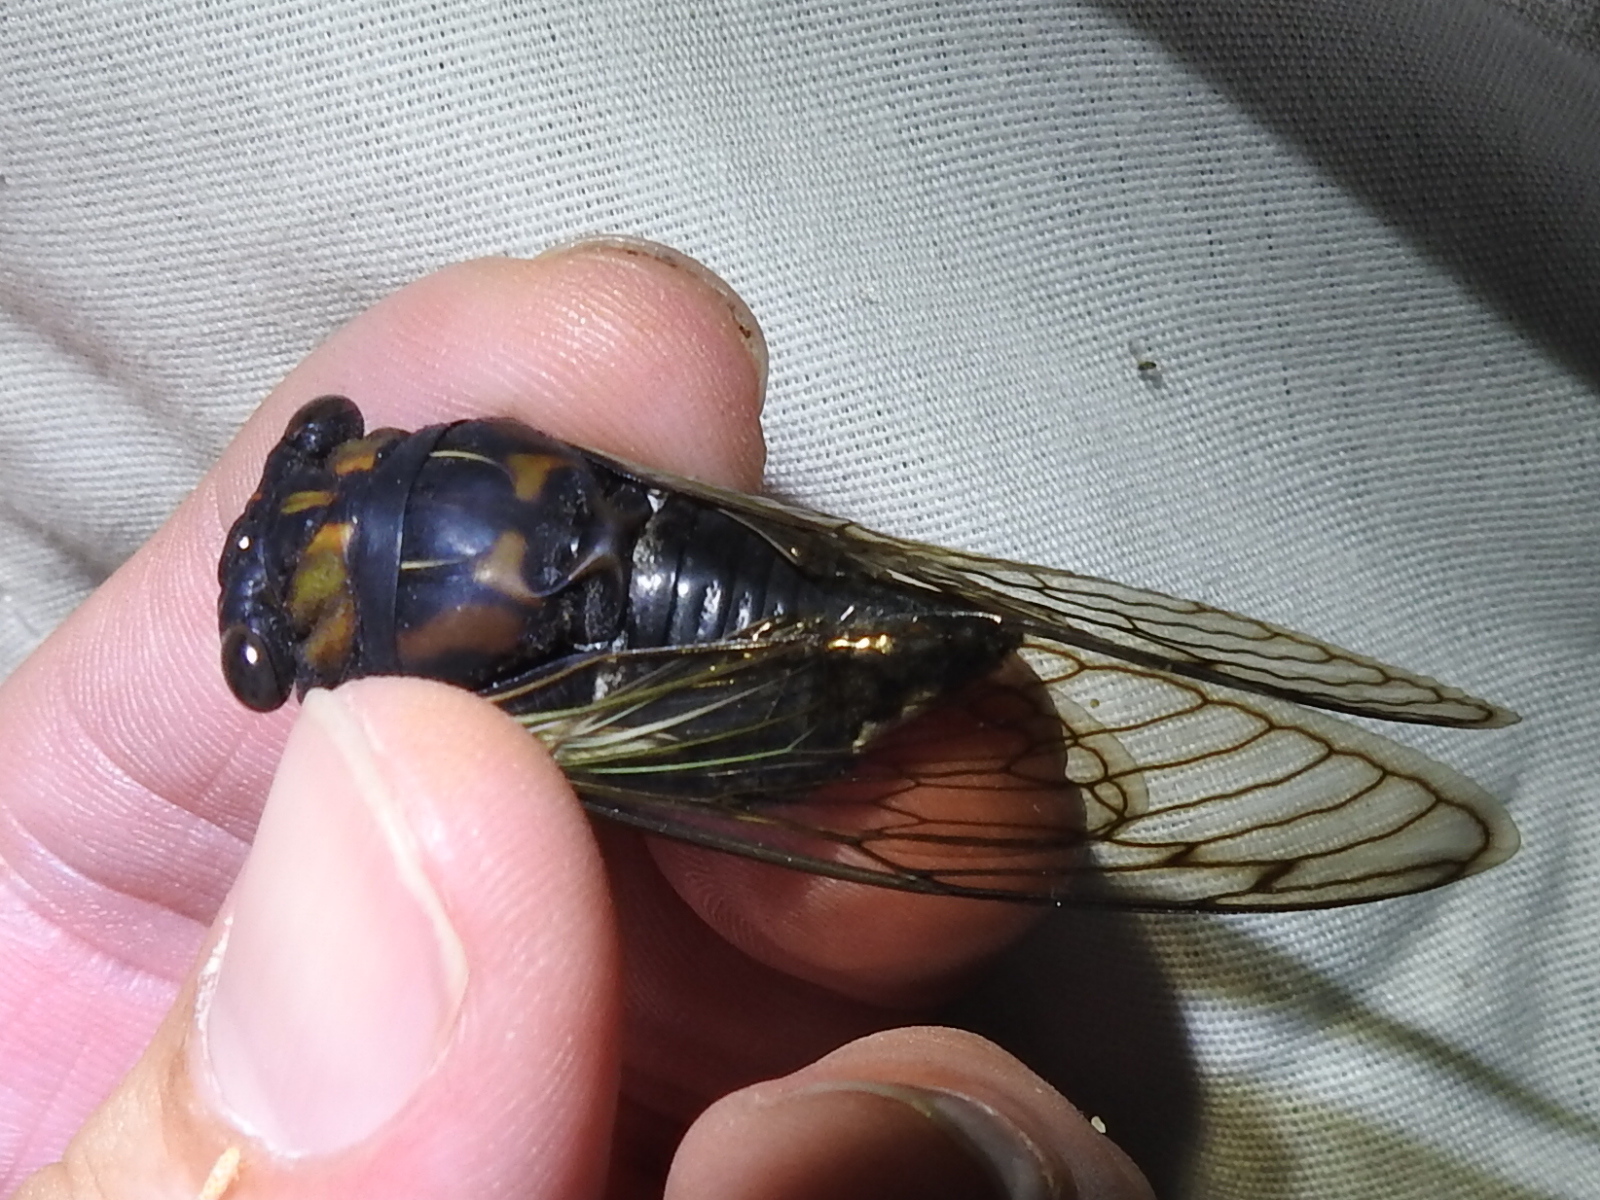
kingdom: Animalia
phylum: Arthropoda
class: Insecta
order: Hemiptera
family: Cicadidae
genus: Neotibicen
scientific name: Neotibicen lyricen
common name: Lyric cicada
